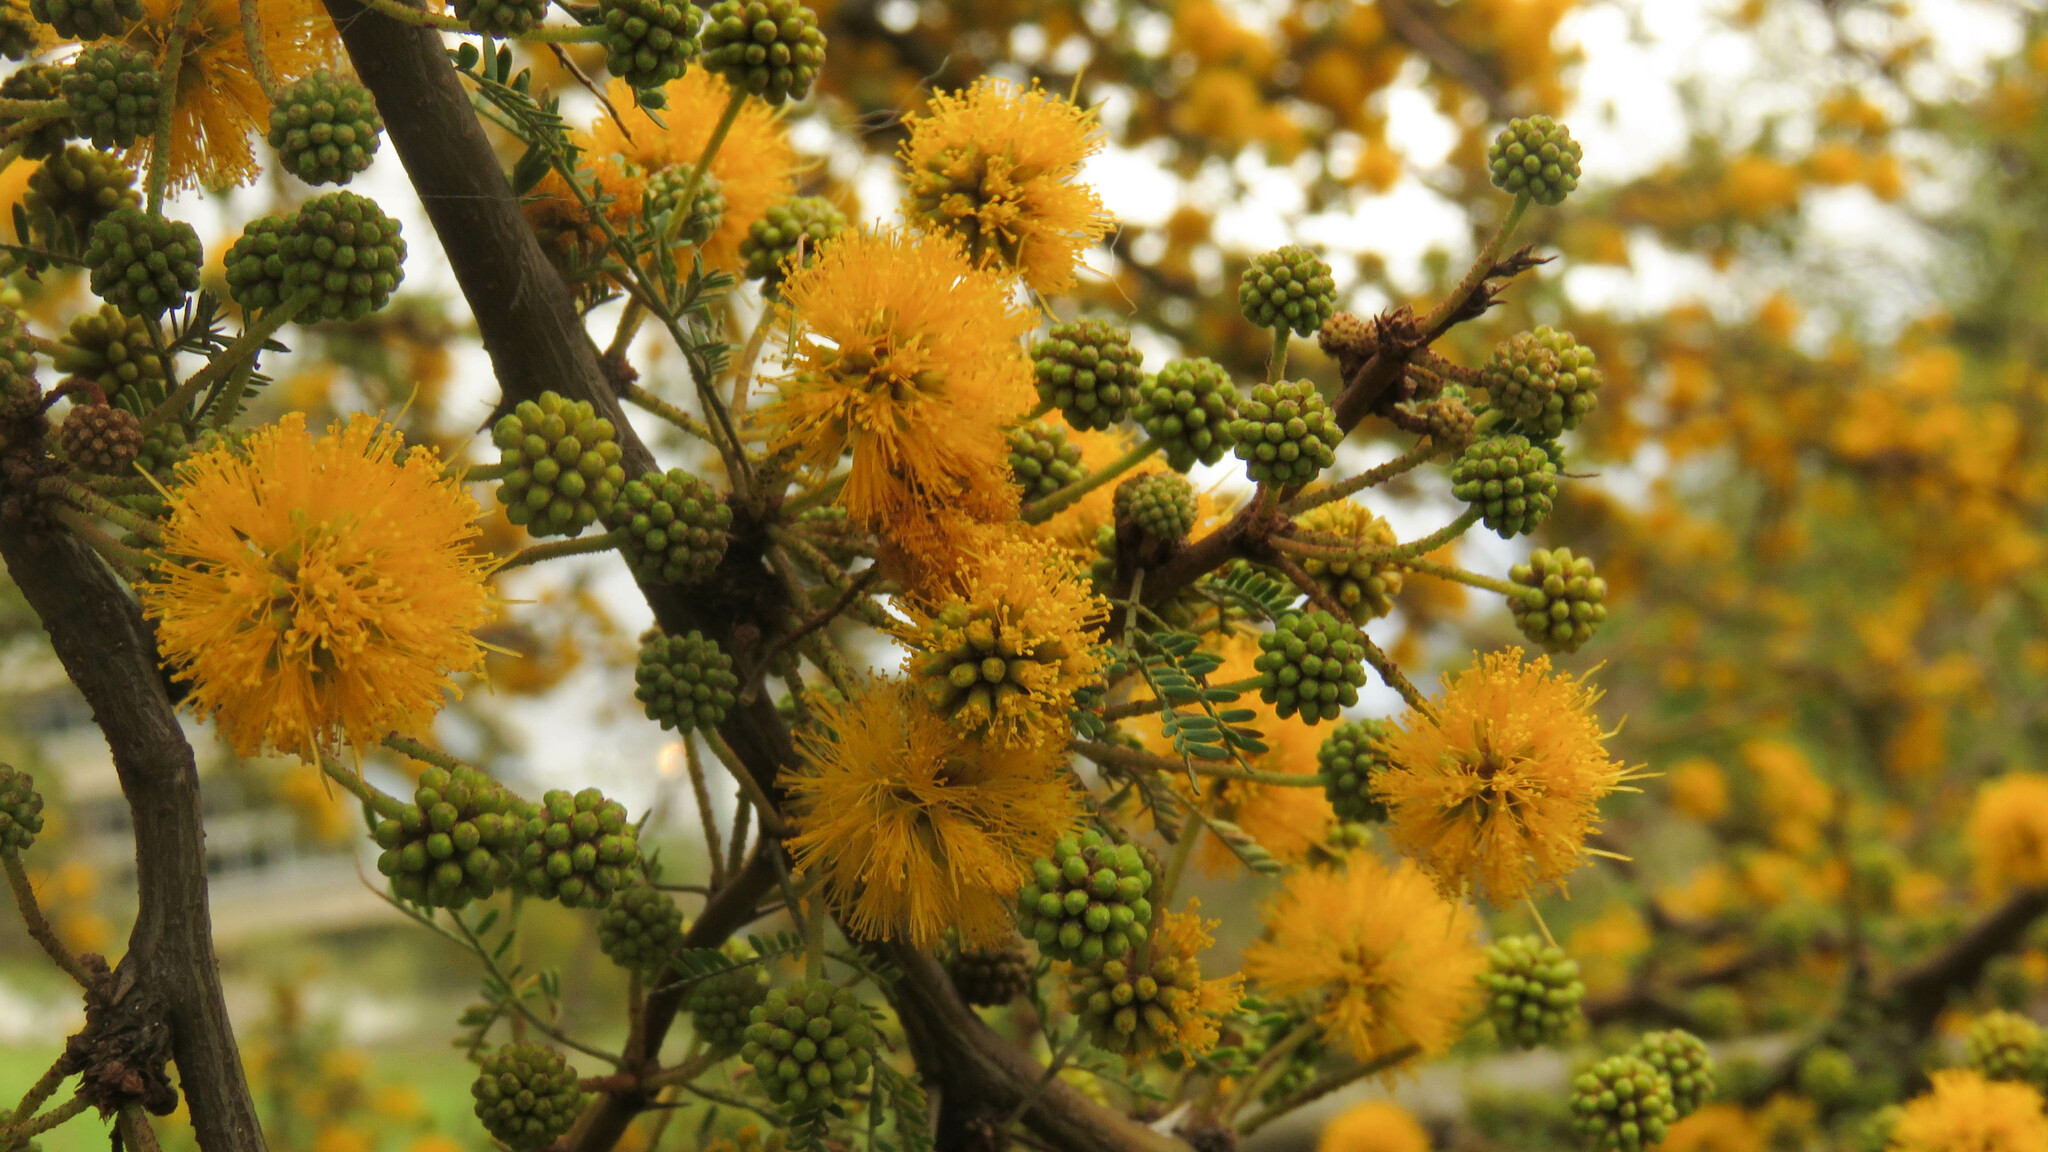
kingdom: Plantae
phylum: Tracheophyta
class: Magnoliopsida
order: Fabales
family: Fabaceae
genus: Vachellia
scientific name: Vachellia caven
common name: Roman cassie
